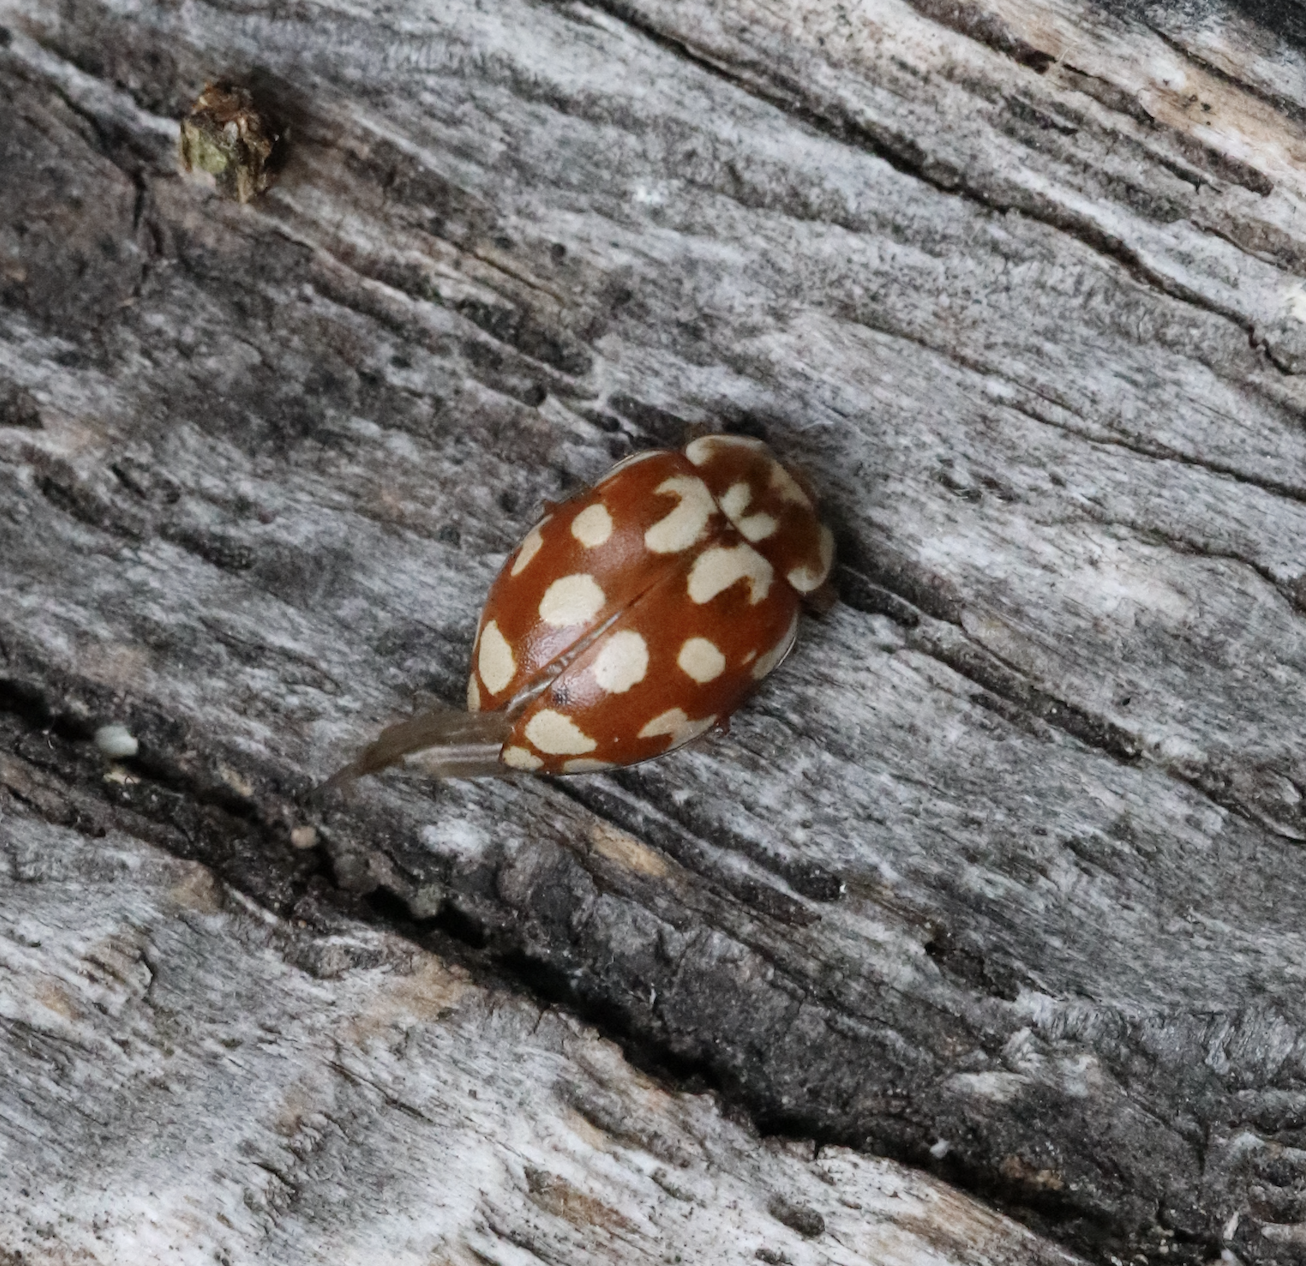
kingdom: Animalia
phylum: Arthropoda
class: Insecta
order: Coleoptera
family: Coccinellidae
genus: Myrrha
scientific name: Myrrha octodecimguttata
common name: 18-spot ladybird
